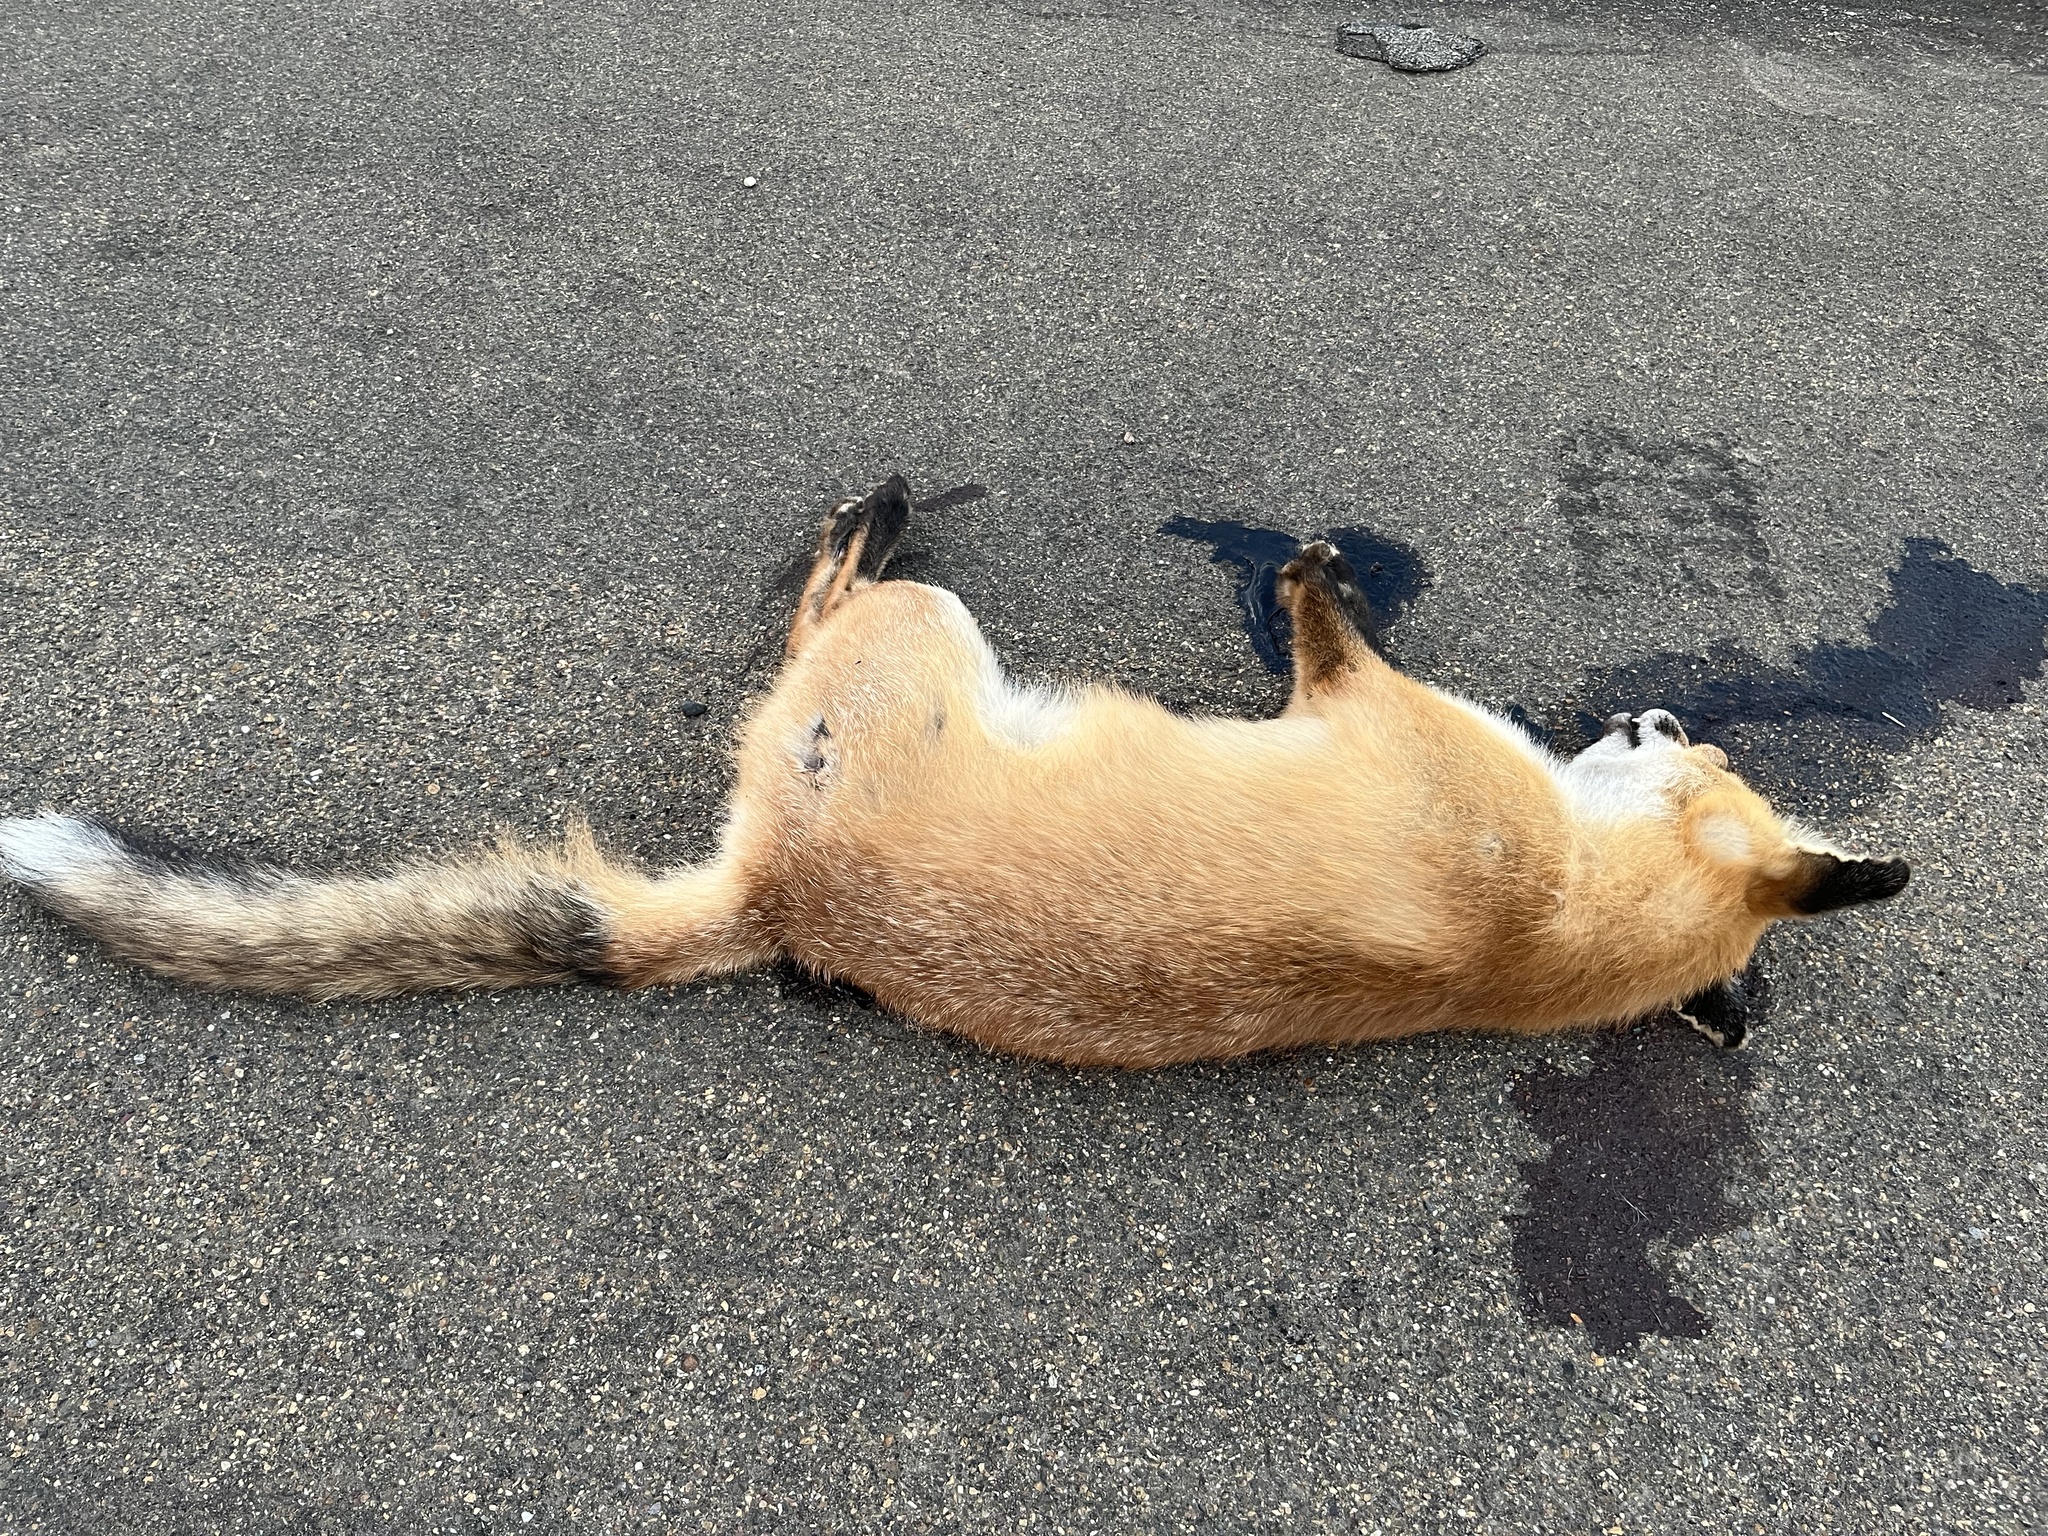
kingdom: Animalia
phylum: Chordata
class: Mammalia
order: Carnivora
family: Canidae
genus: Vulpes
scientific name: Vulpes vulpes
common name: Red fox
